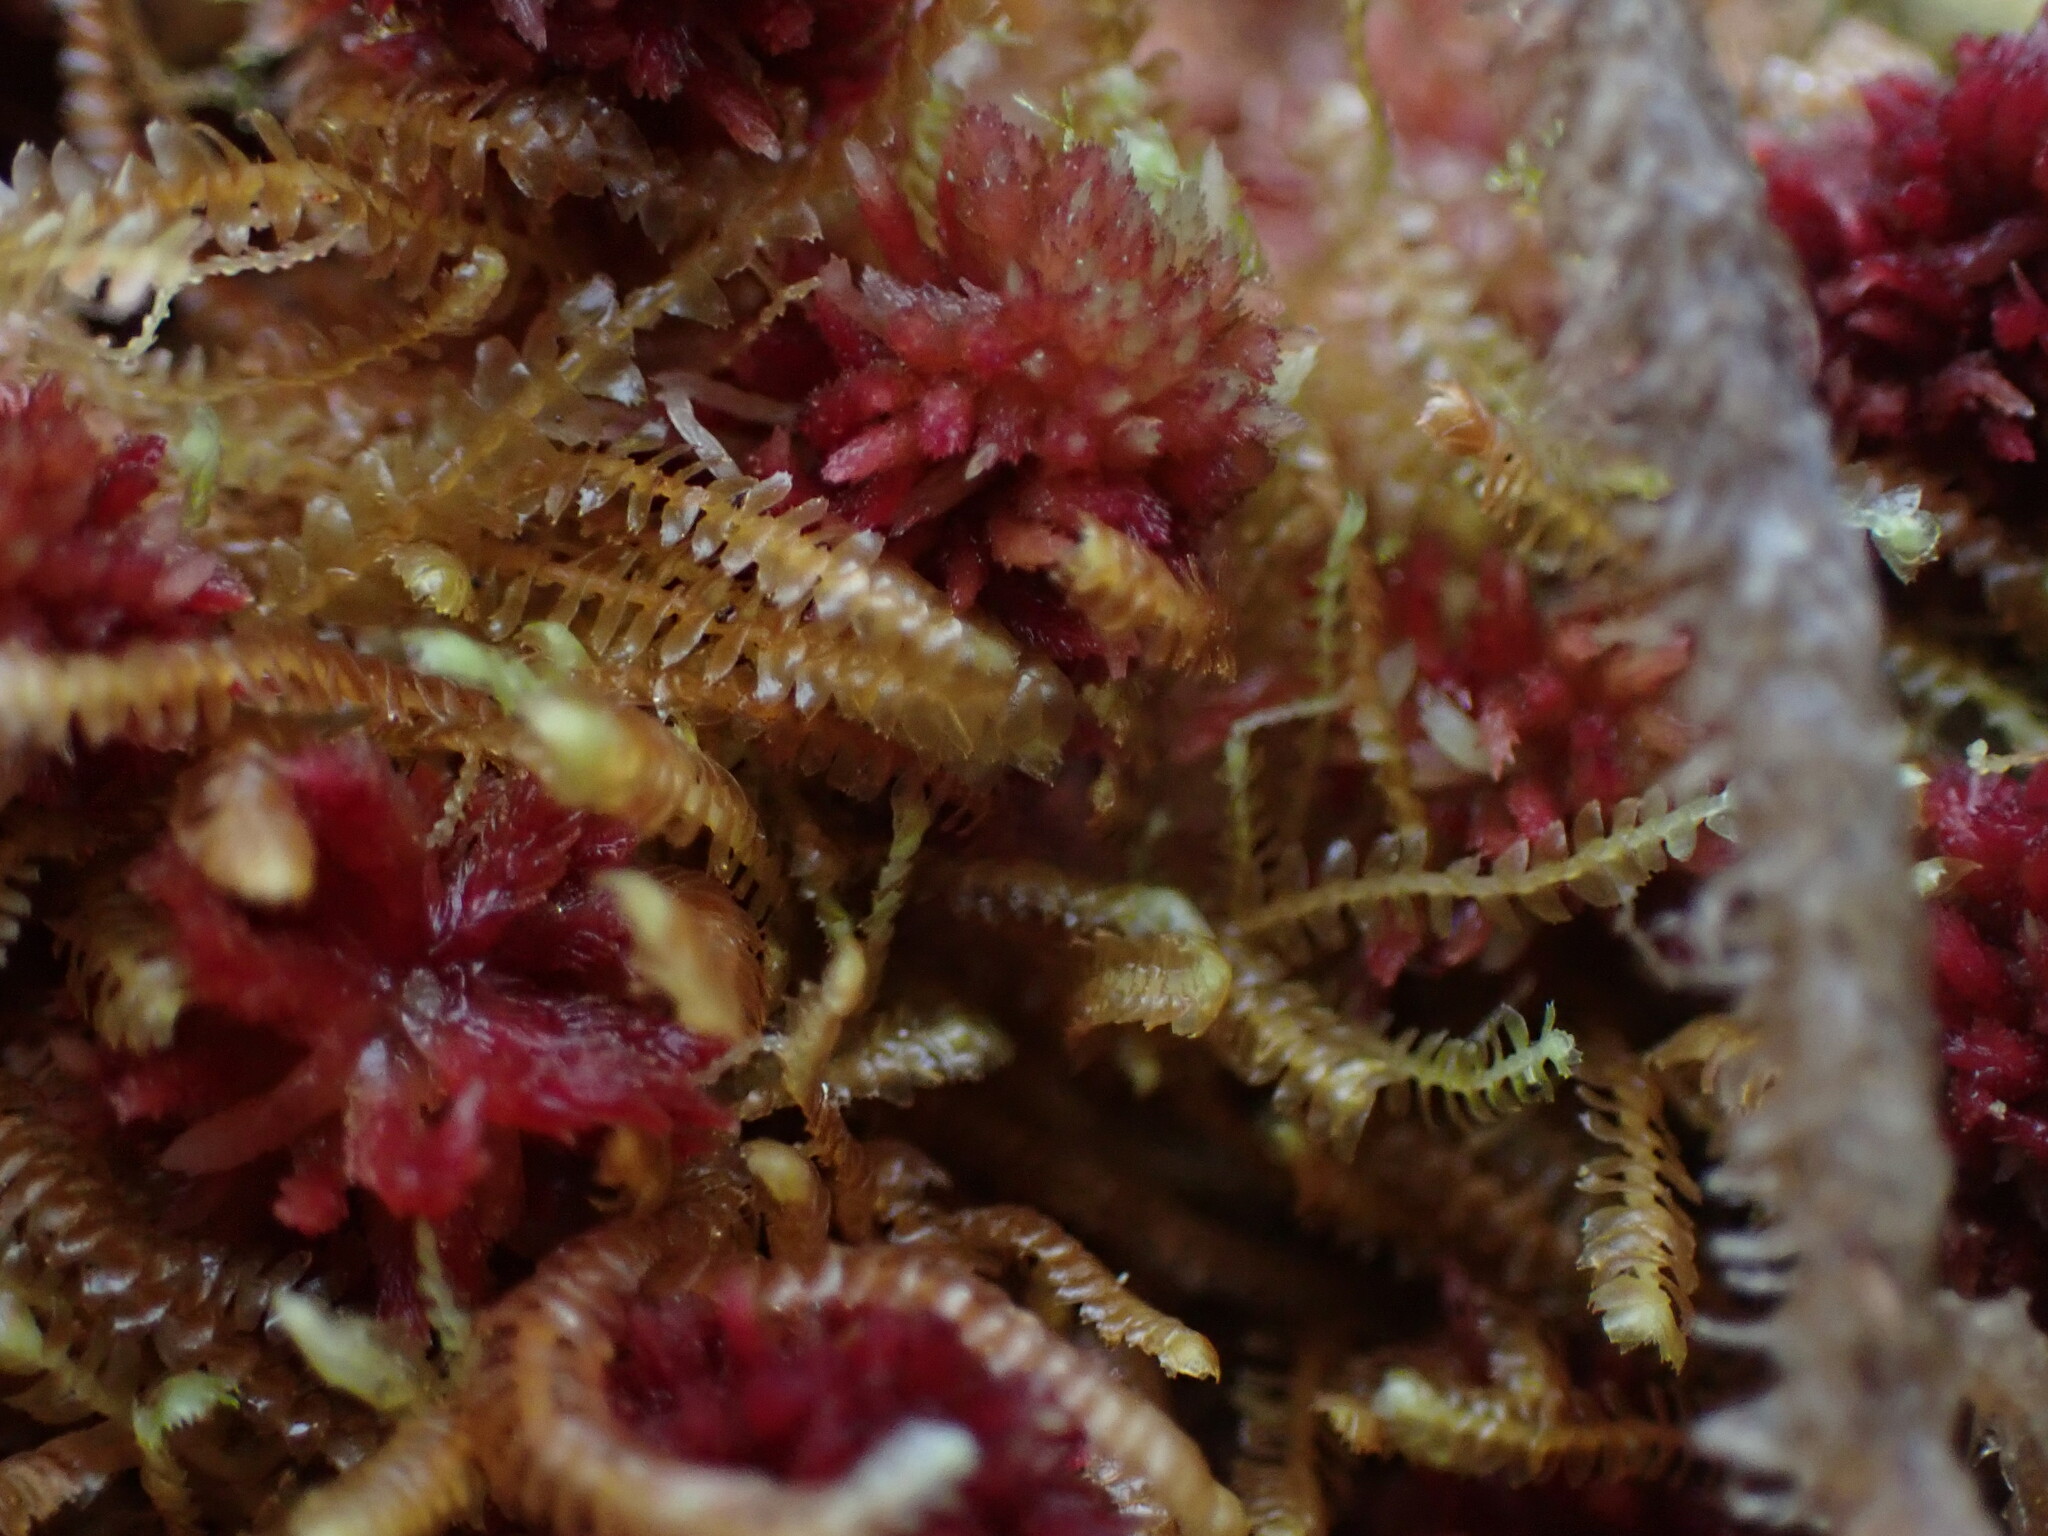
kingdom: Plantae
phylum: Marchantiophyta
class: Jungermanniopsida
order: Jungermanniales
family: Lepidoziaceae
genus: Bazzania
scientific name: Bazzania tricrenata
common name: Lesser whipwort
